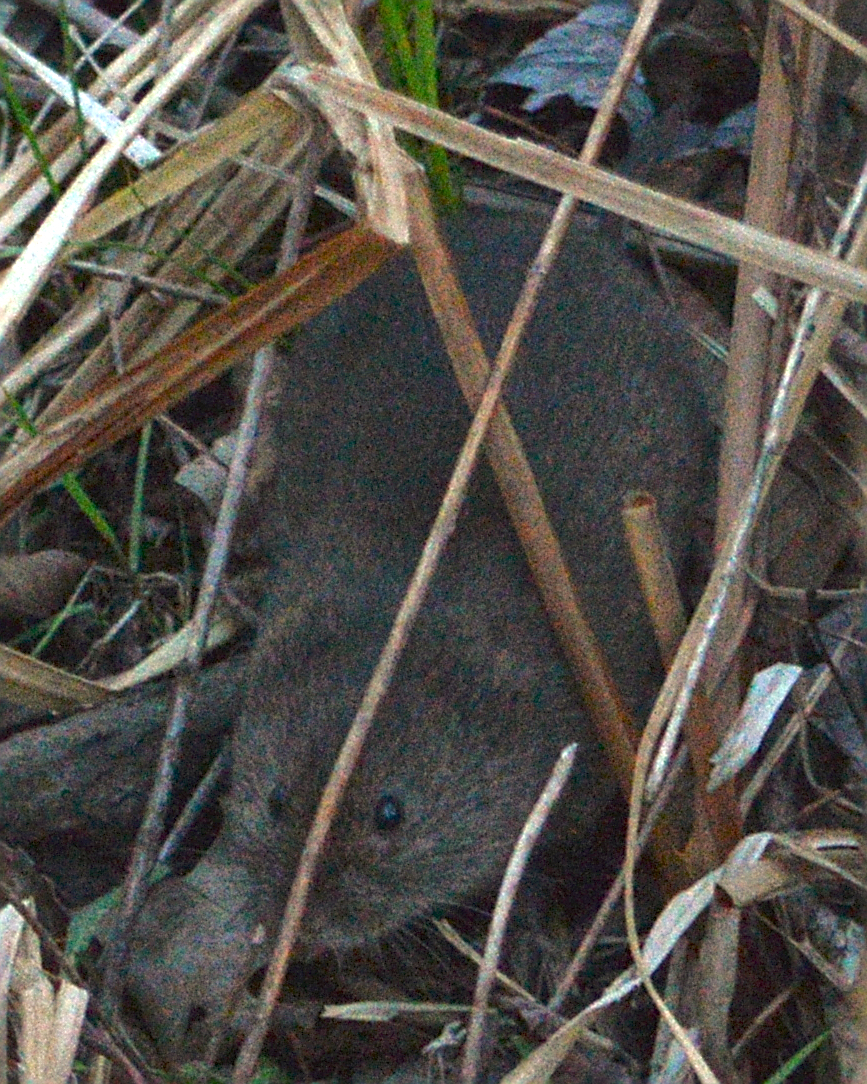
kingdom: Animalia
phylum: Chordata
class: Mammalia
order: Rodentia
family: Cricetidae
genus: Microtus
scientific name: Microtus pennsylvanicus
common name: Meadow vole
